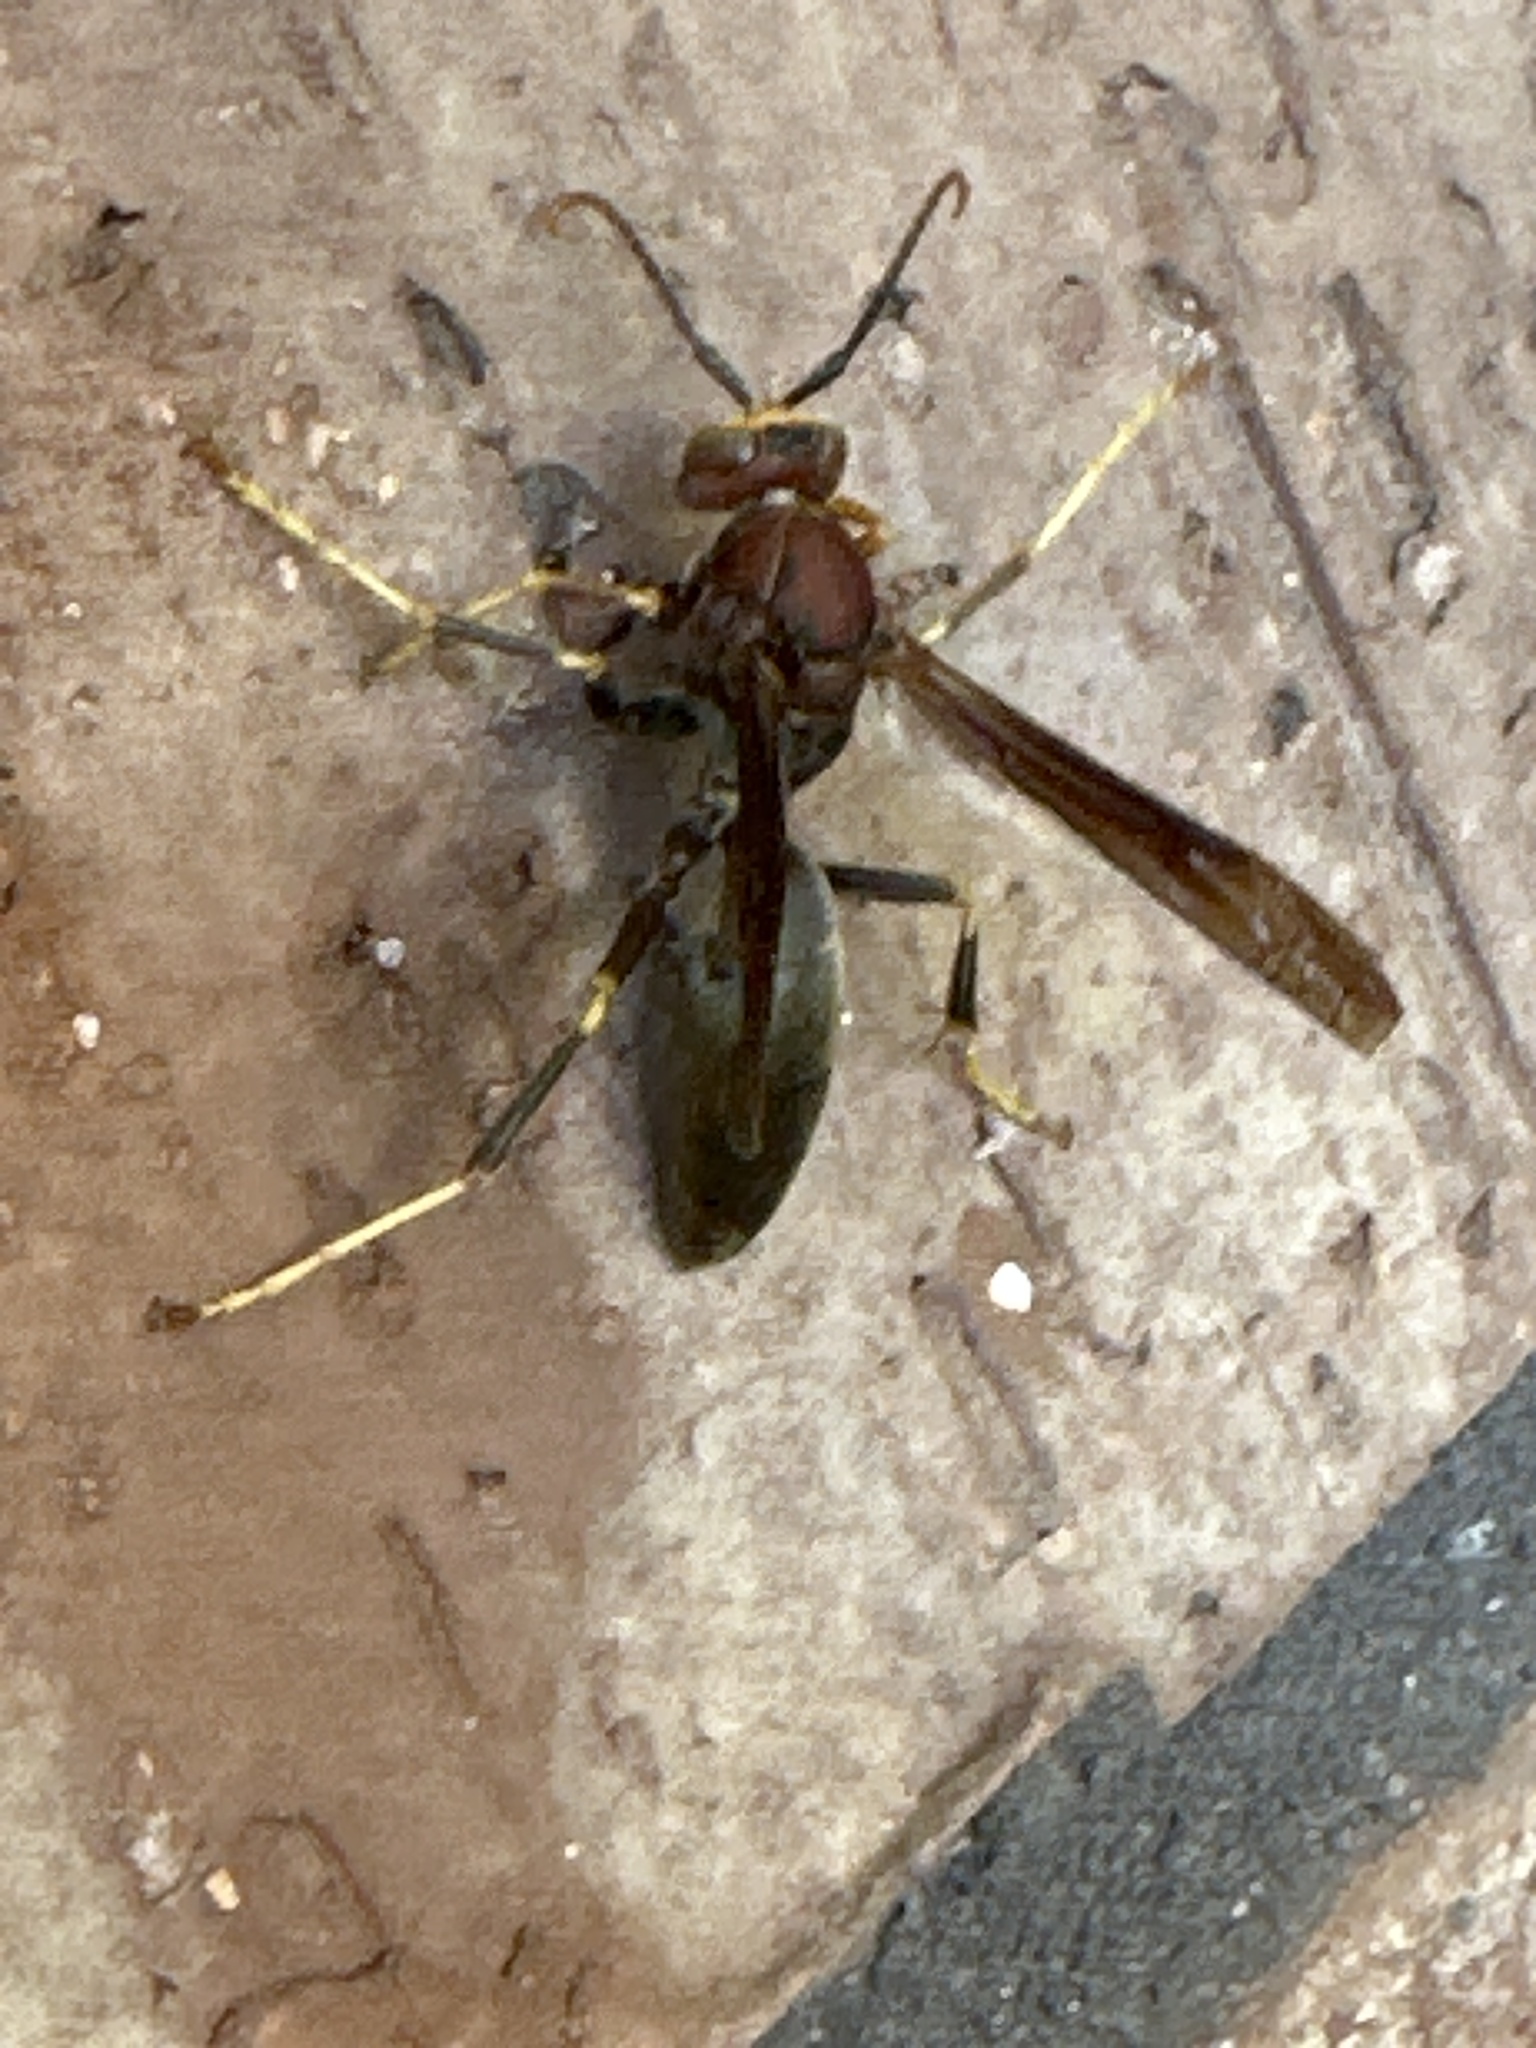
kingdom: Animalia
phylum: Arthropoda
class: Insecta
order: Hymenoptera
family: Eumenidae
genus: Polistes
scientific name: Polistes metricus
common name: Metric paper wasp
